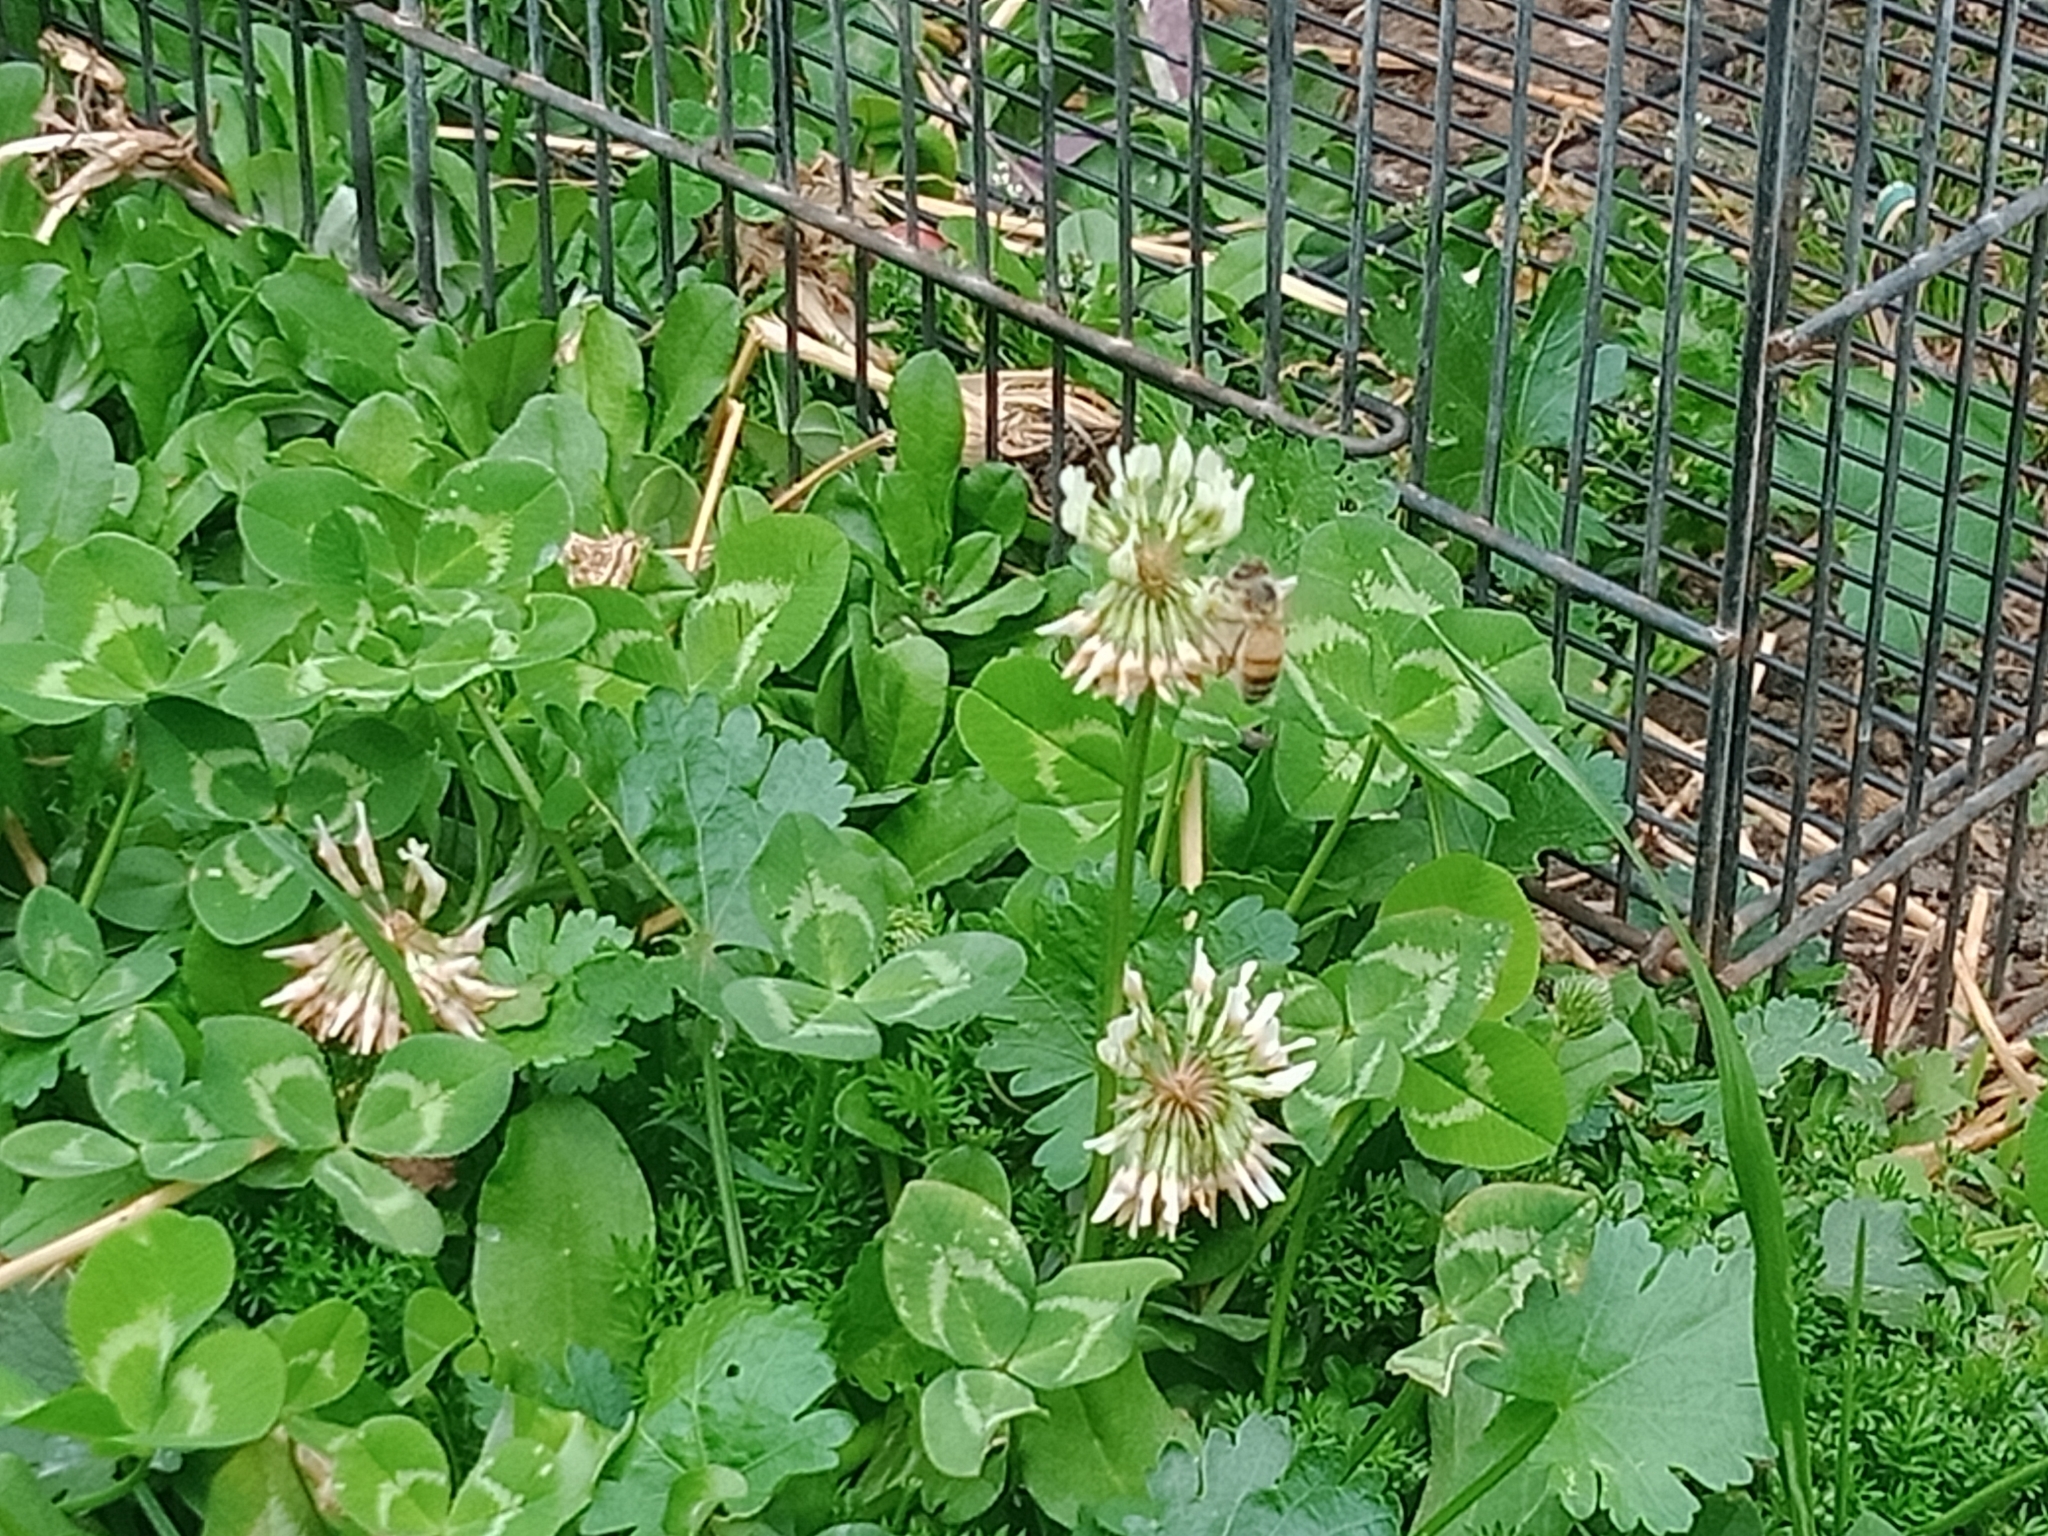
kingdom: Plantae
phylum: Tracheophyta
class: Magnoliopsida
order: Fabales
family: Fabaceae
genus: Trifolium
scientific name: Trifolium repens
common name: White clover
